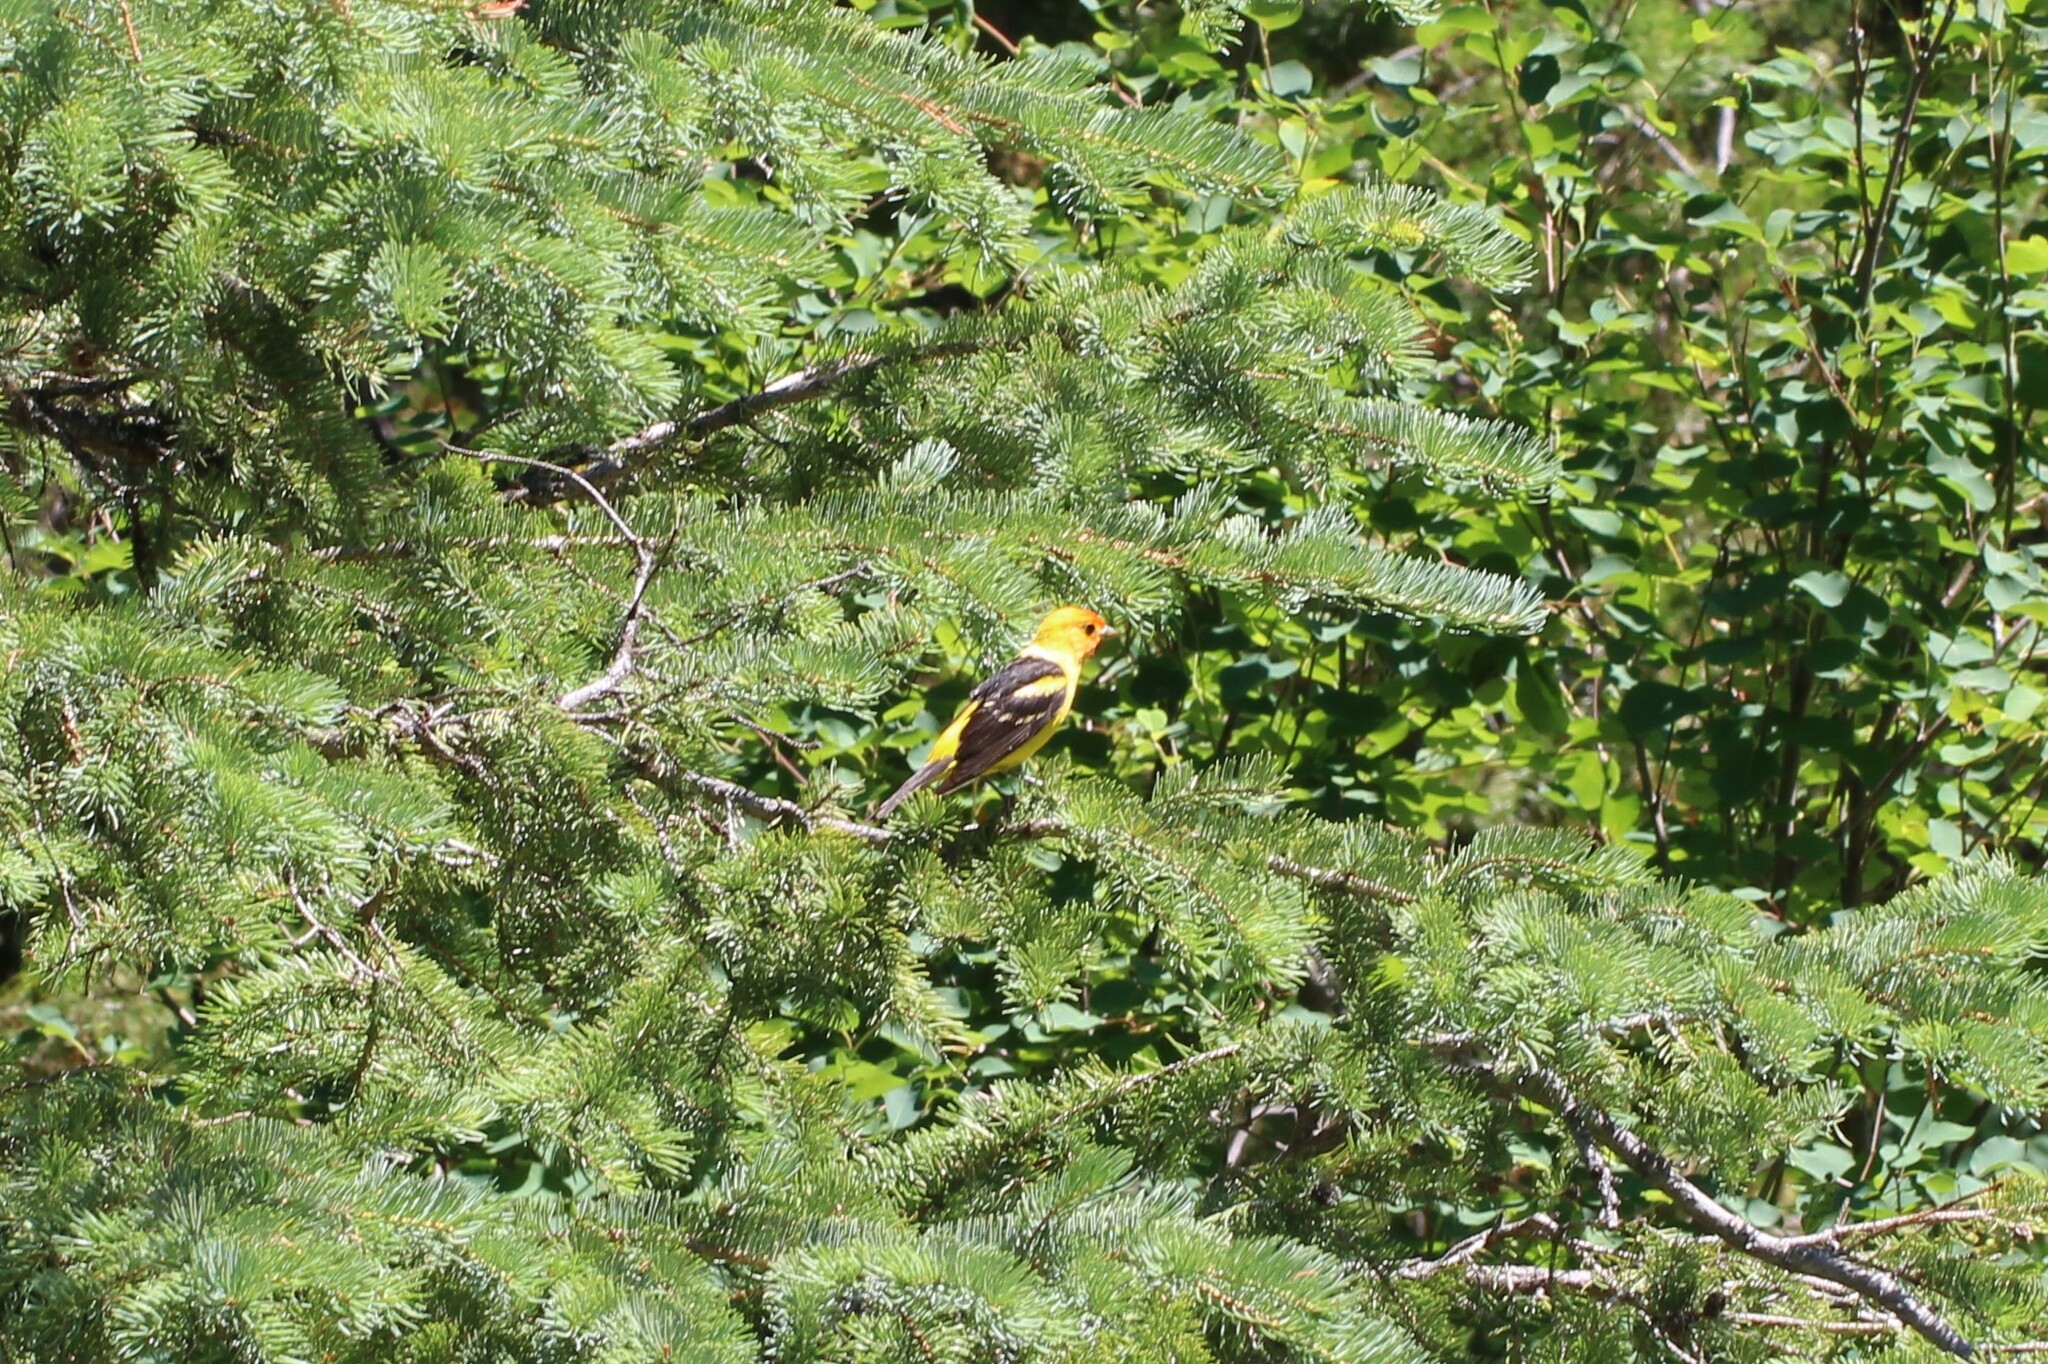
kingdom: Animalia
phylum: Chordata
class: Aves
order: Passeriformes
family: Cardinalidae
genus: Piranga
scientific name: Piranga ludoviciana
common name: Western tanager
